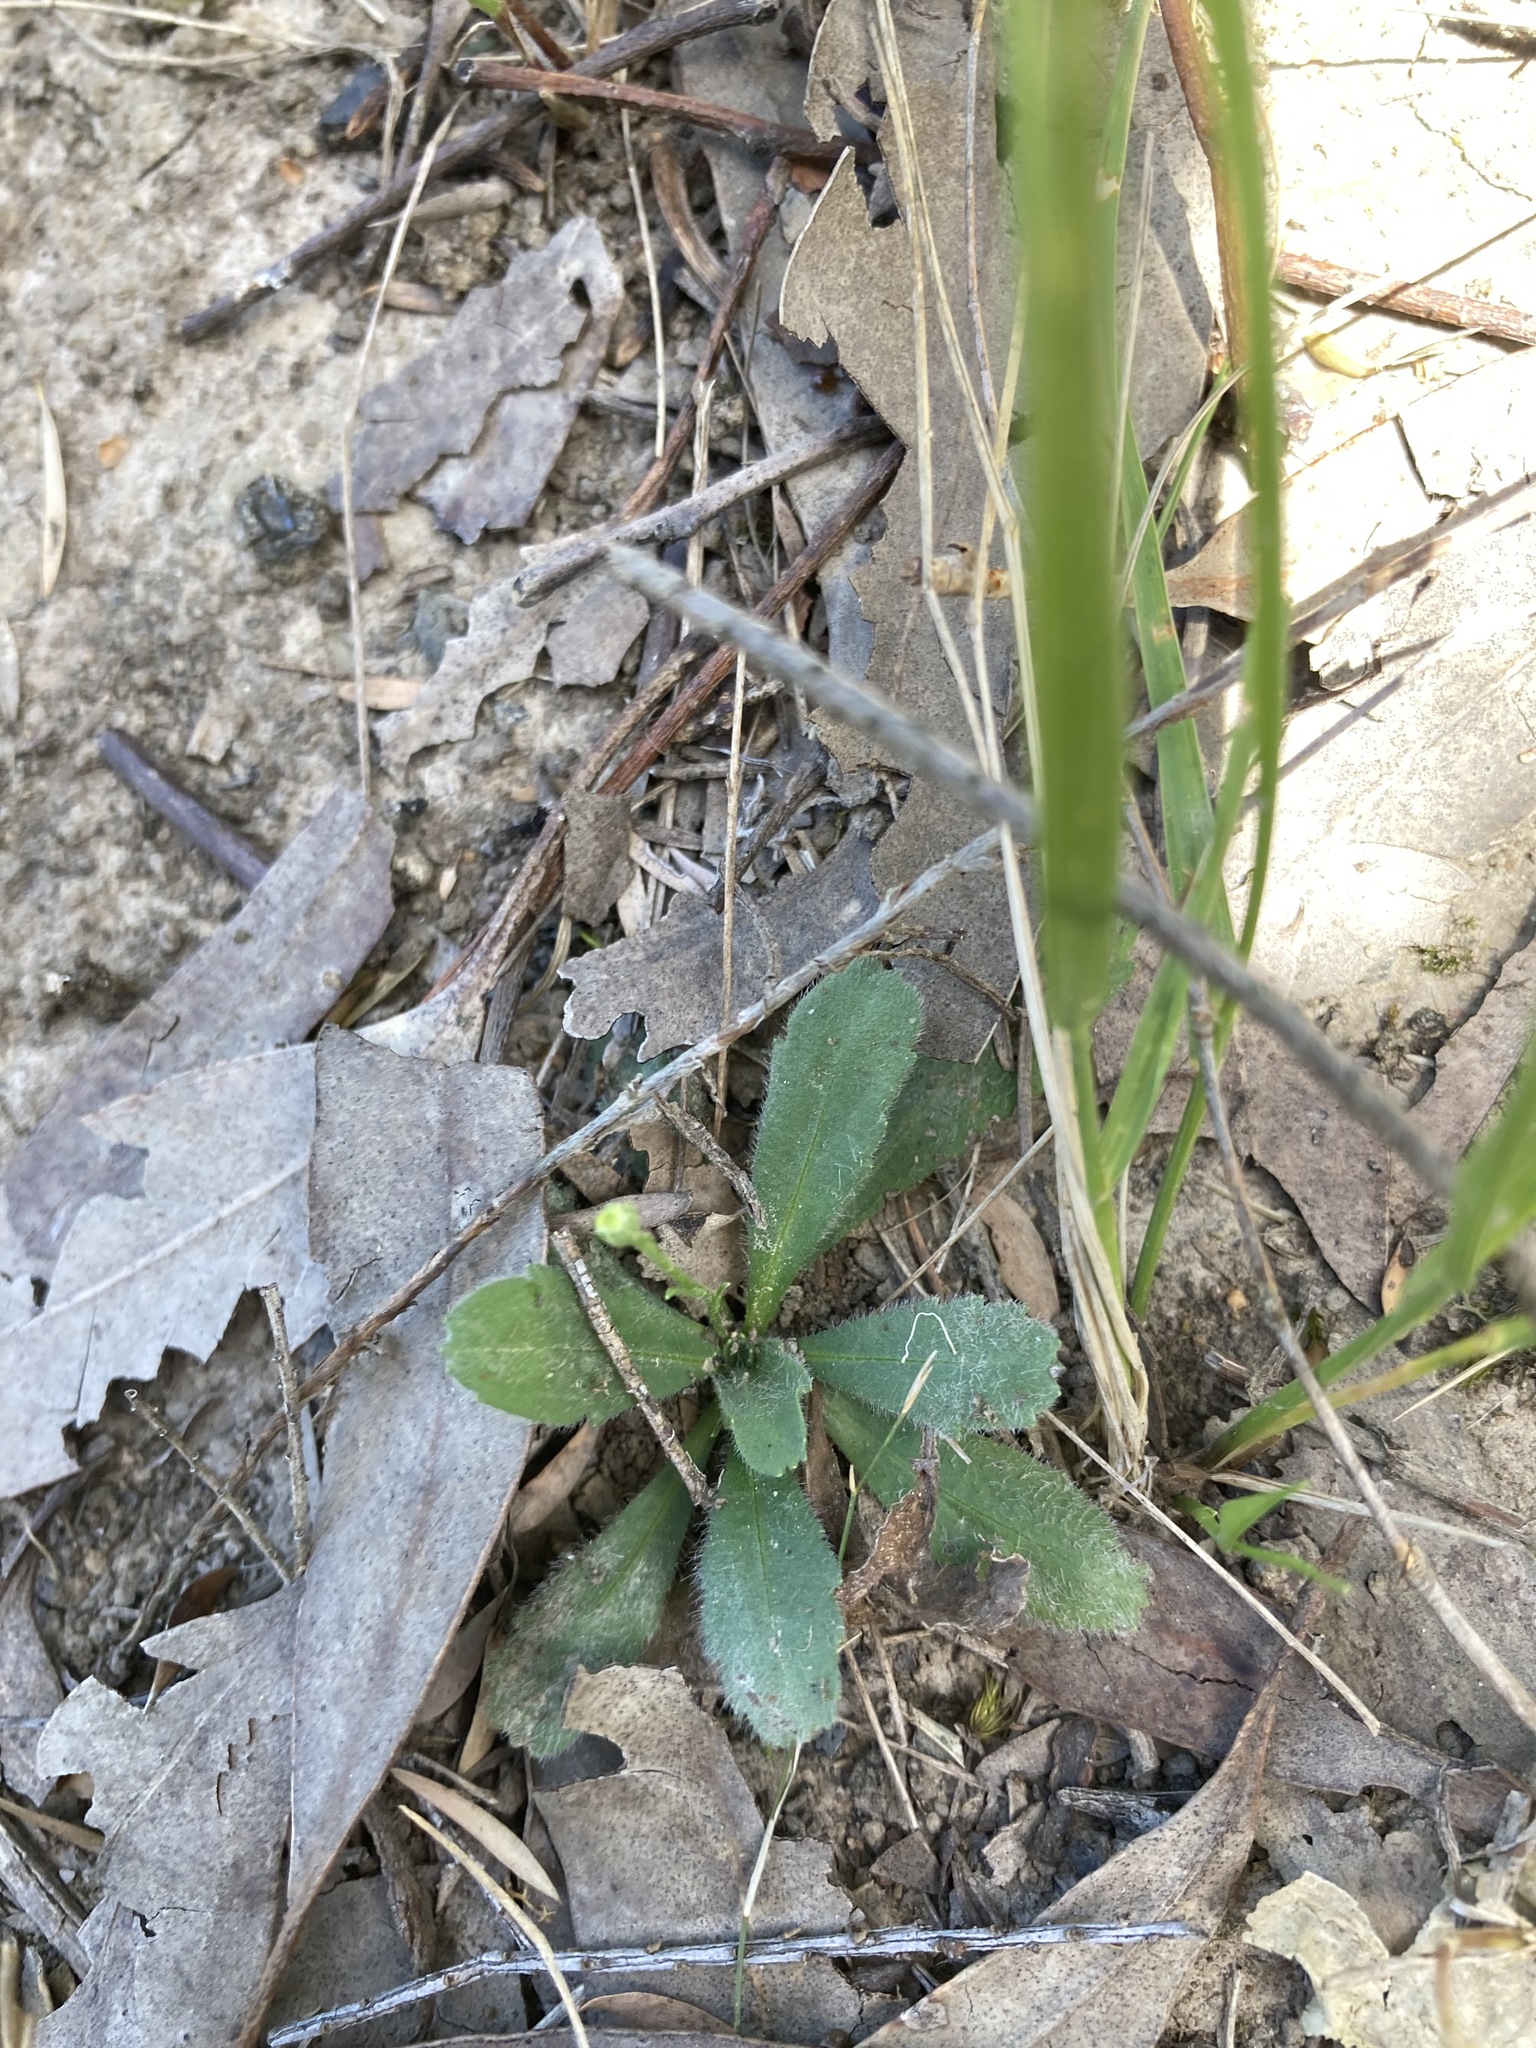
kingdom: Plantae
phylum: Tracheophyta
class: Magnoliopsida
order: Asterales
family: Asteraceae
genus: Solenogyne
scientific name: Solenogyne bellioides
